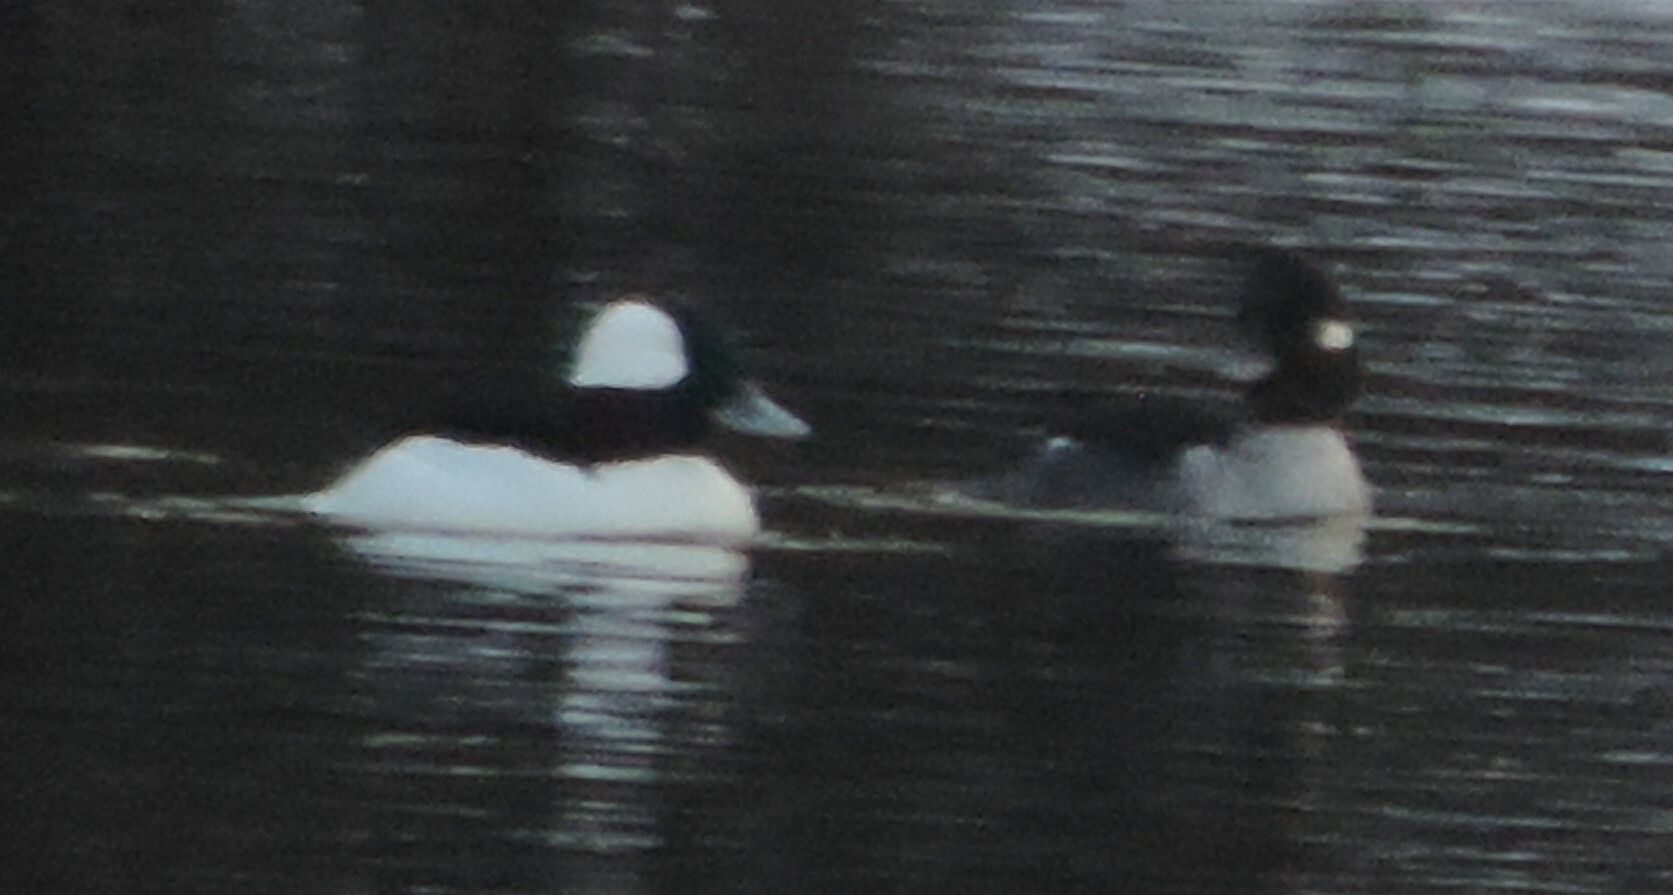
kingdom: Animalia
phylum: Chordata
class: Aves
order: Anseriformes
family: Anatidae
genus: Bucephala
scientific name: Bucephala albeola
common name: Bufflehead
